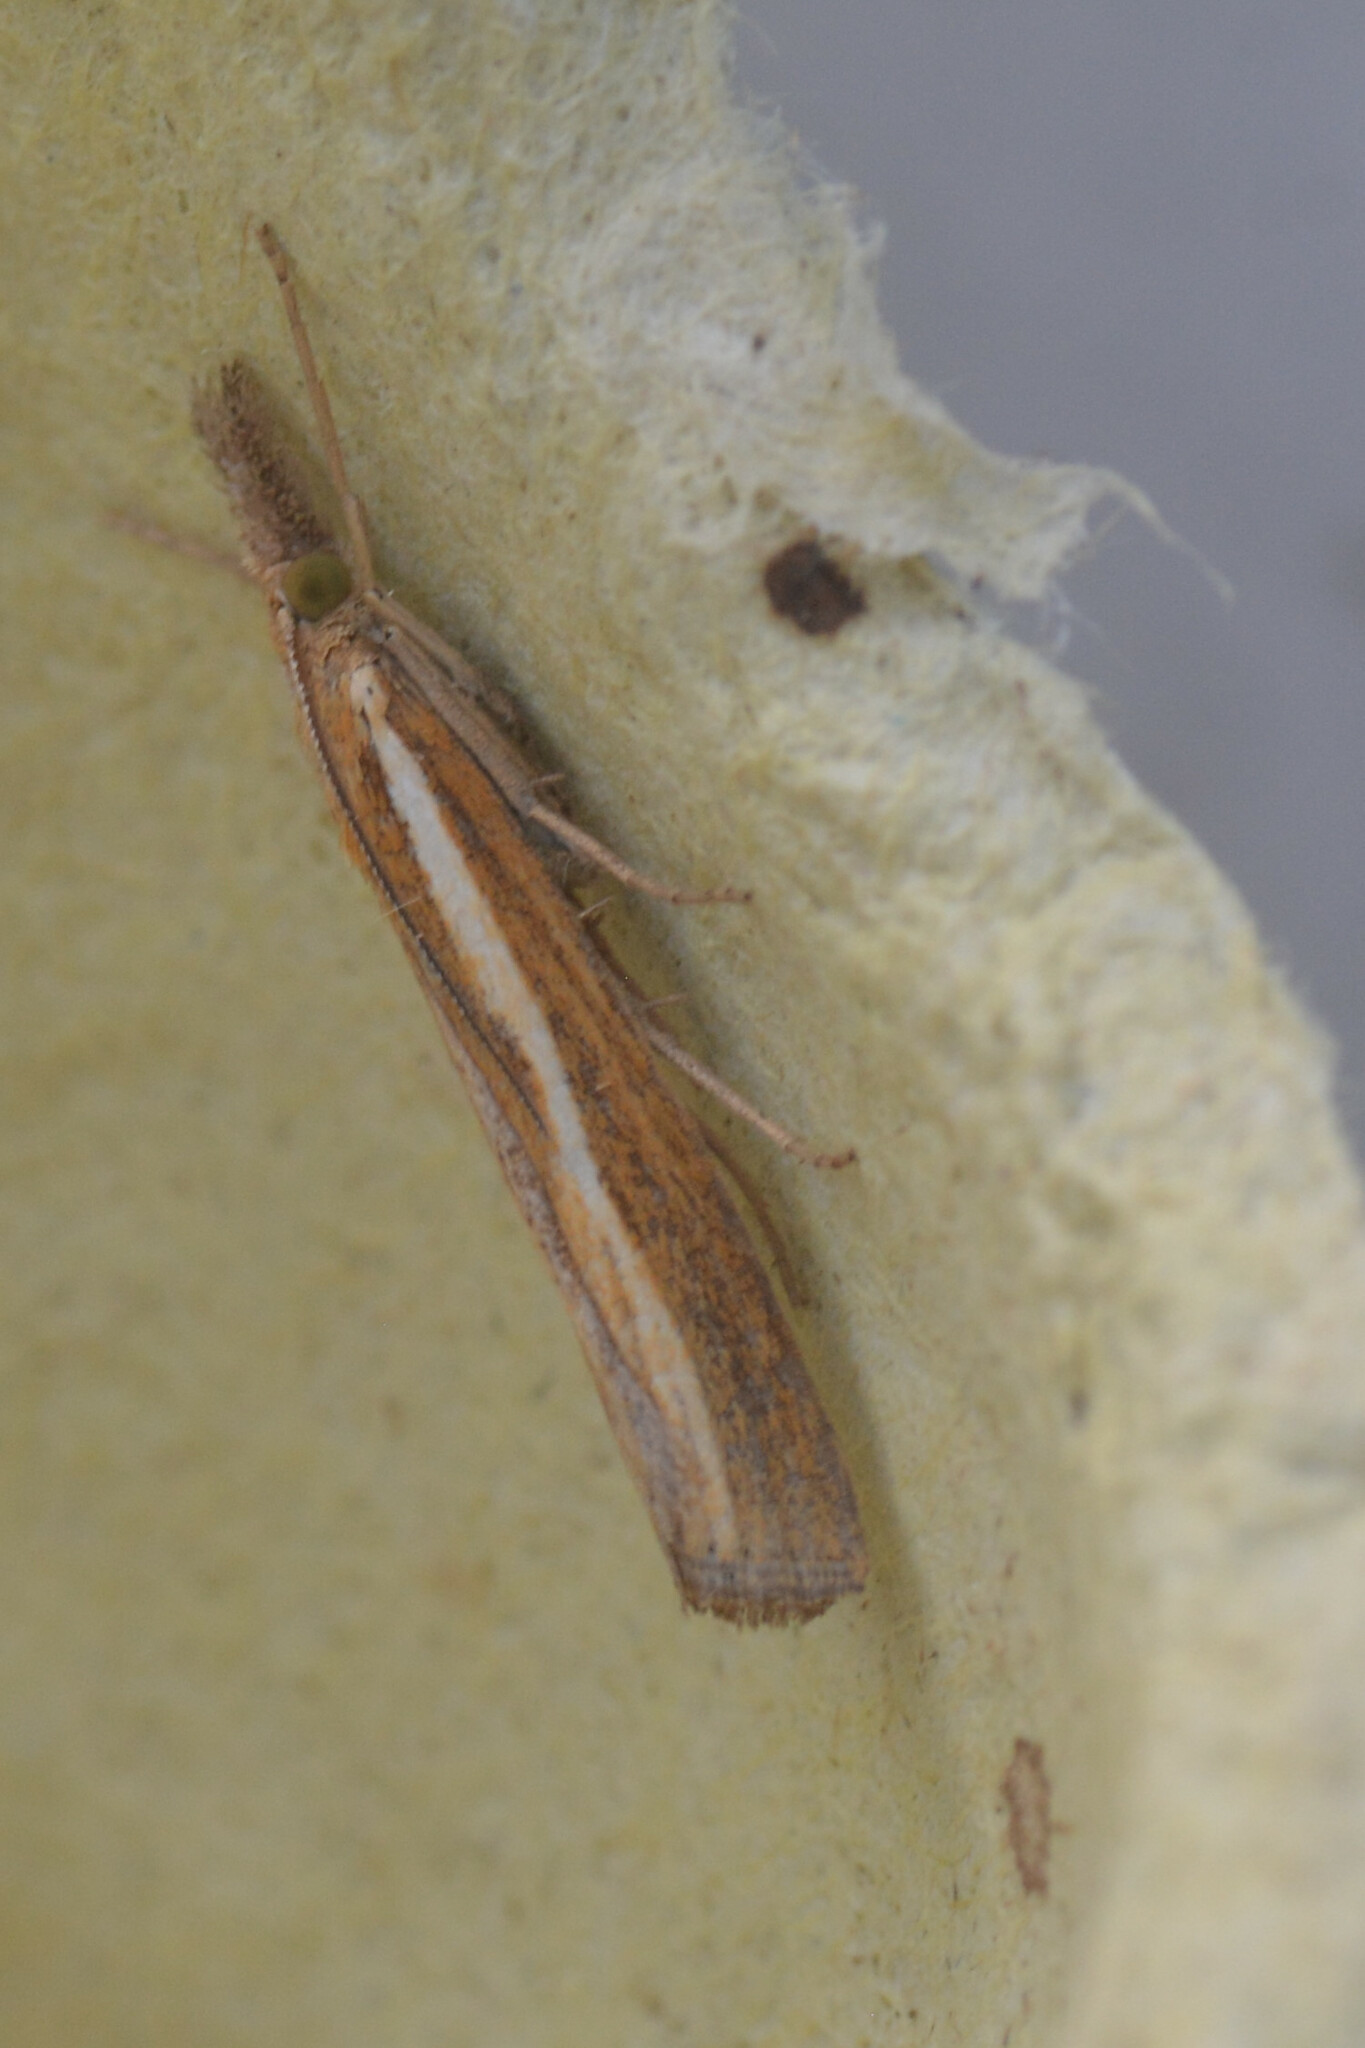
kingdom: Animalia
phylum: Arthropoda
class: Insecta
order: Lepidoptera
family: Crambidae
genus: Agriphila
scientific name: Agriphila tristellus
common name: Common grass-veneer
